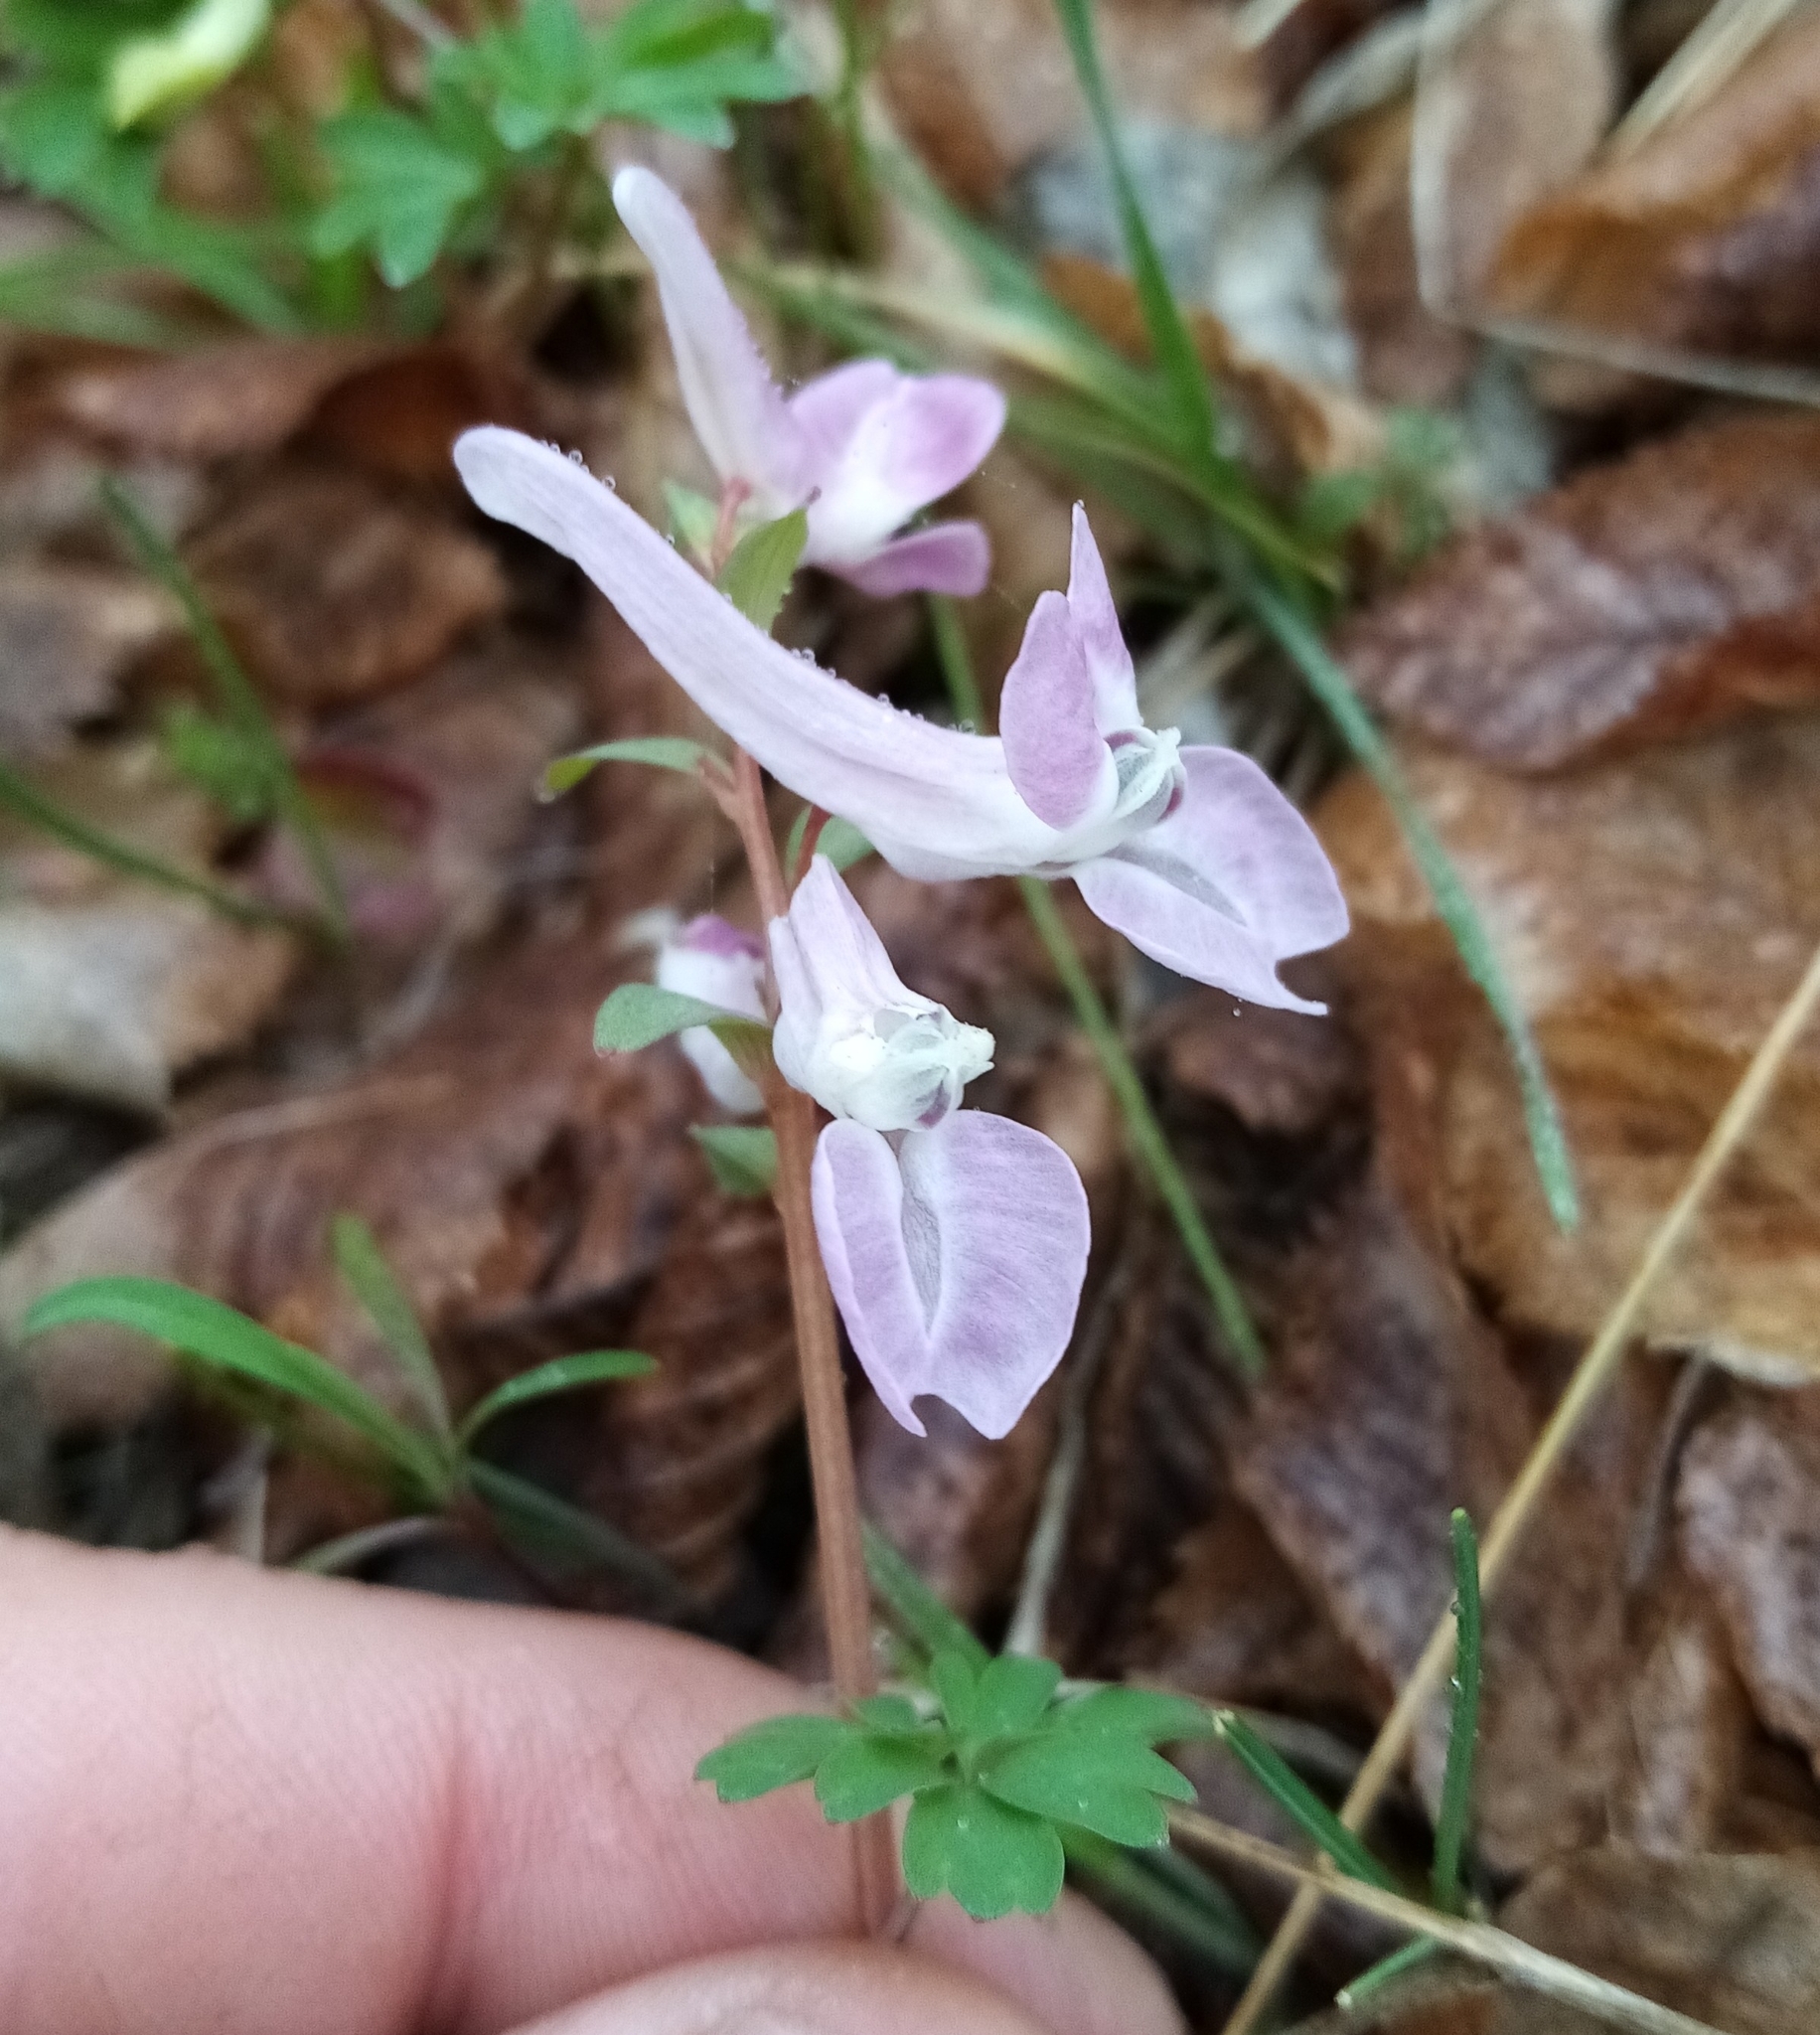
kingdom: Plantae
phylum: Tracheophyta
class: Magnoliopsida
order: Ranunculales
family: Papaveraceae
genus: Corydalis
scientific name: Corydalis caucasica
